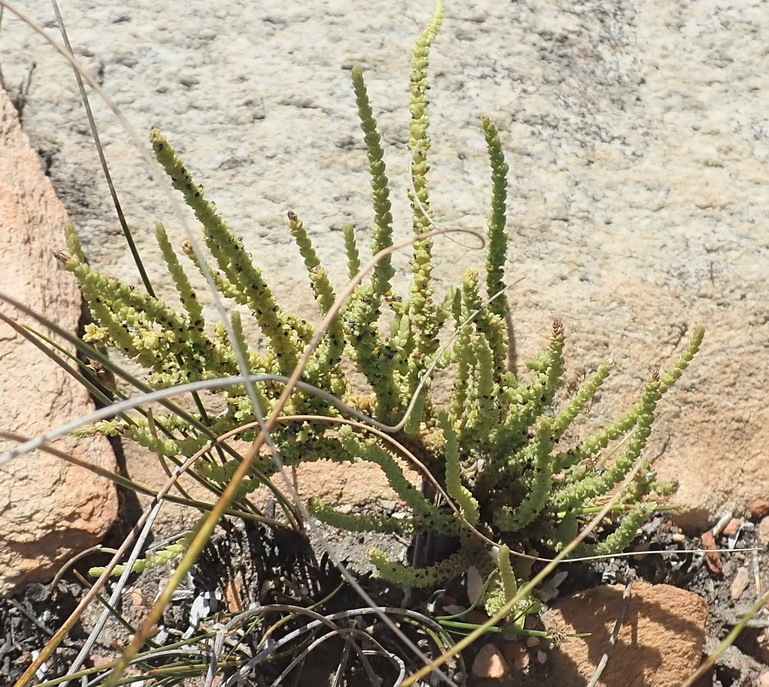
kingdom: Plantae
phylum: Tracheophyta
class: Magnoliopsida
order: Saxifragales
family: Crassulaceae
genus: Crassula
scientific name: Crassula muscosa
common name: Toy-cypress
